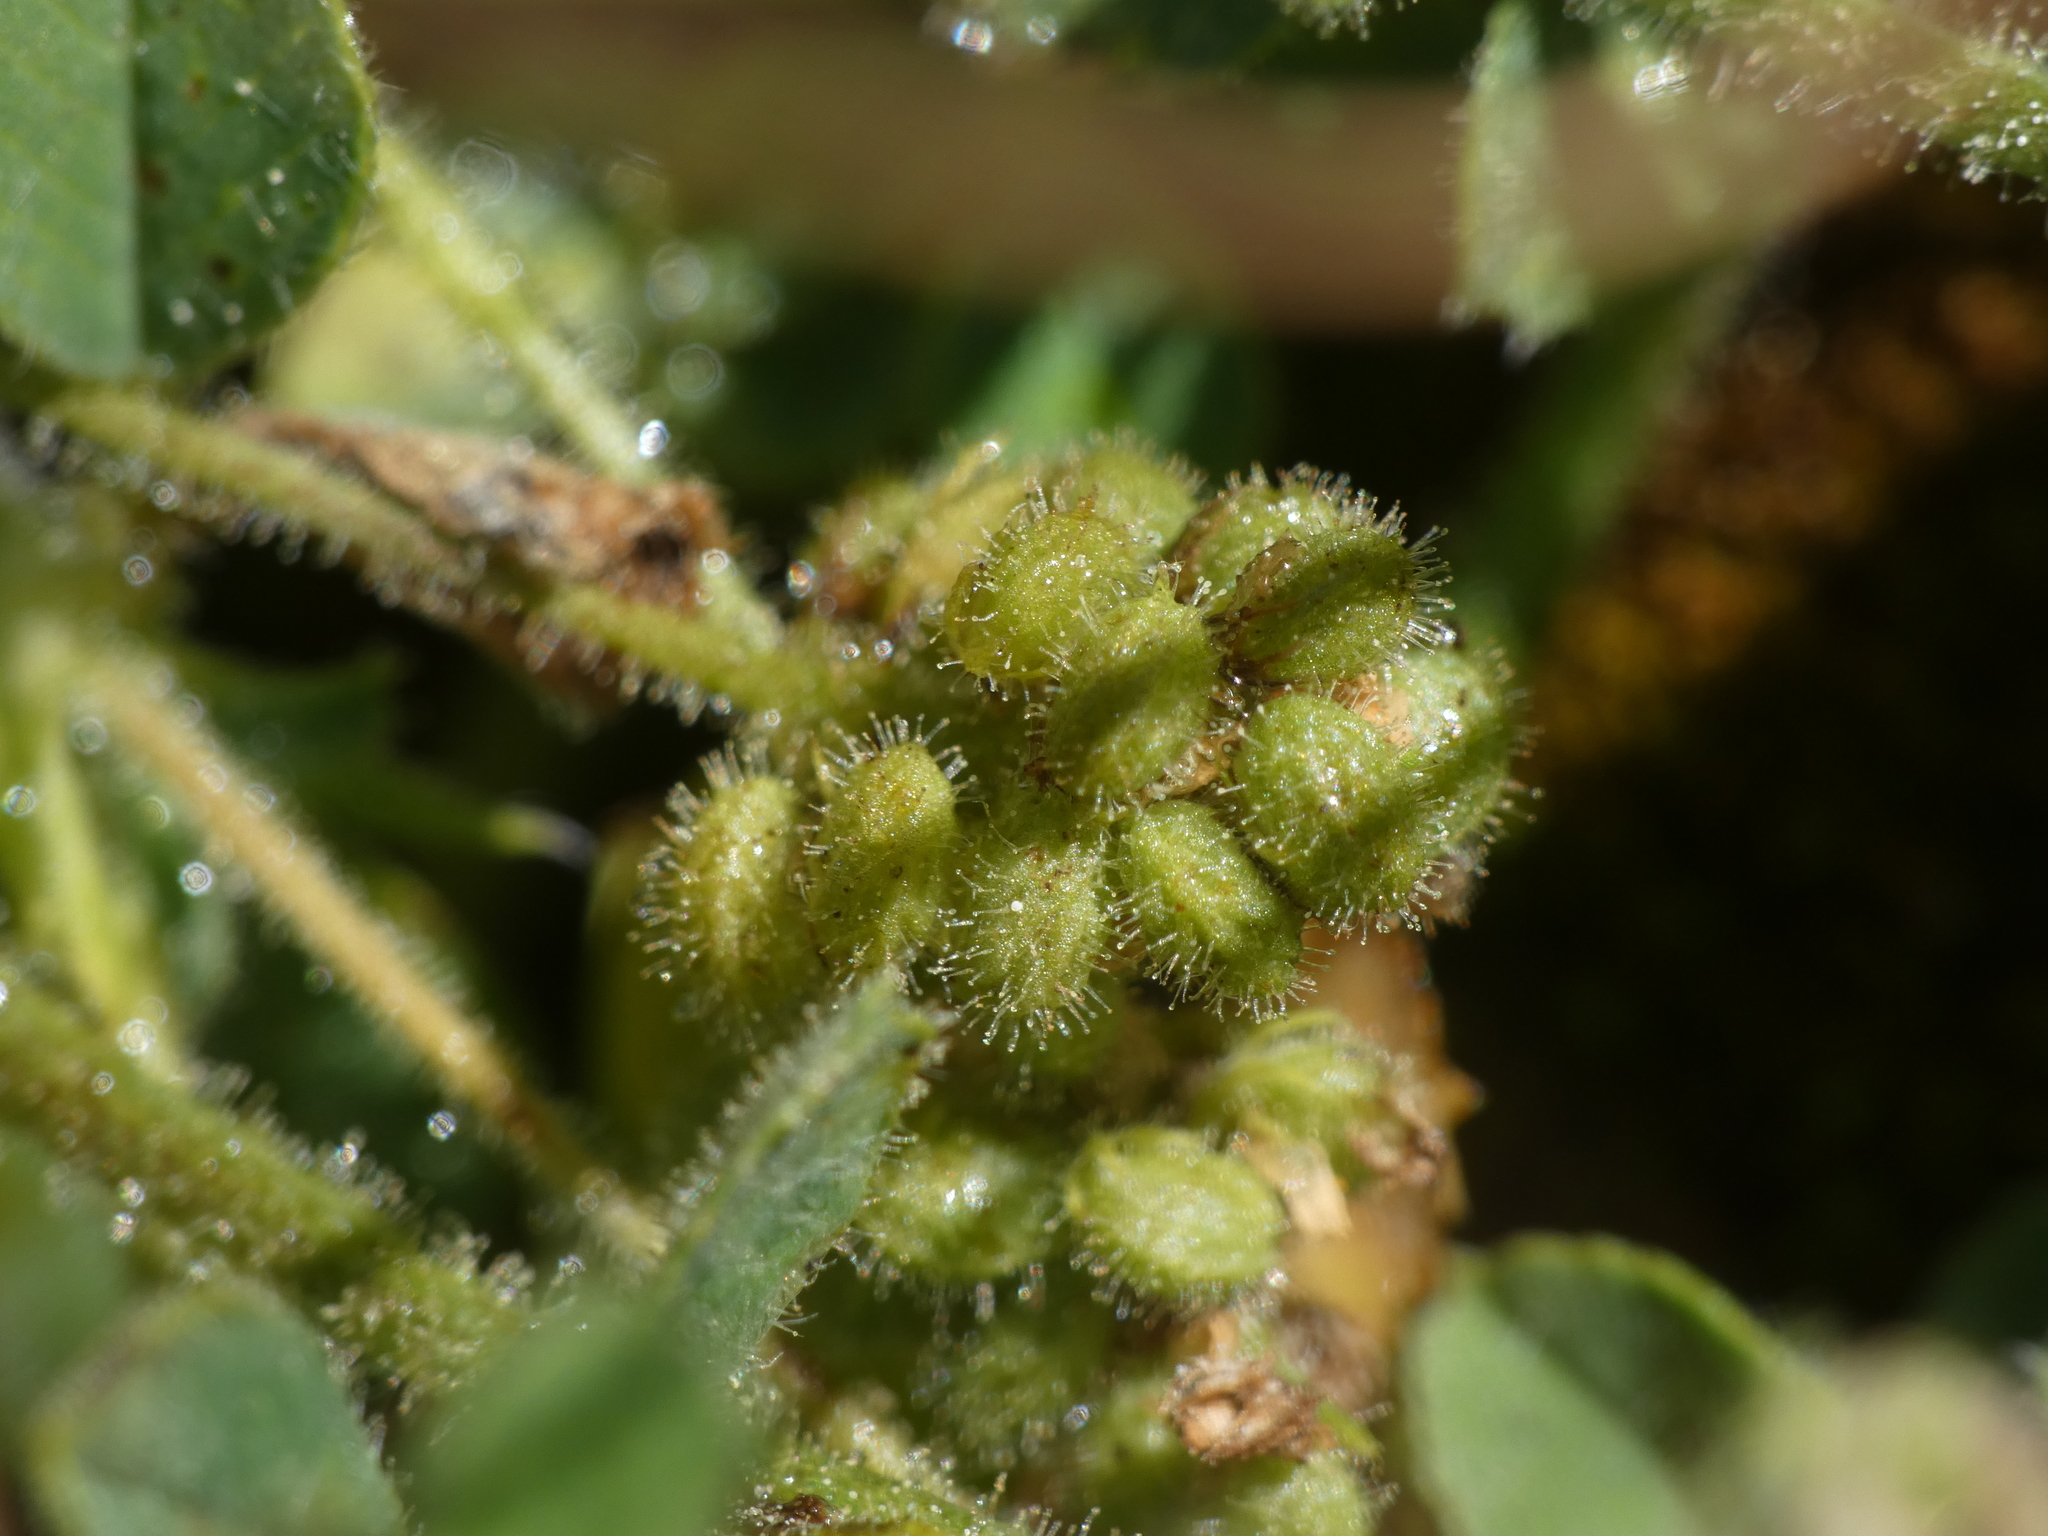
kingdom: Plantae
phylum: Tracheophyta
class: Magnoliopsida
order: Fabales
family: Fabaceae
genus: Medicago
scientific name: Medicago lupulina
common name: Black medick
